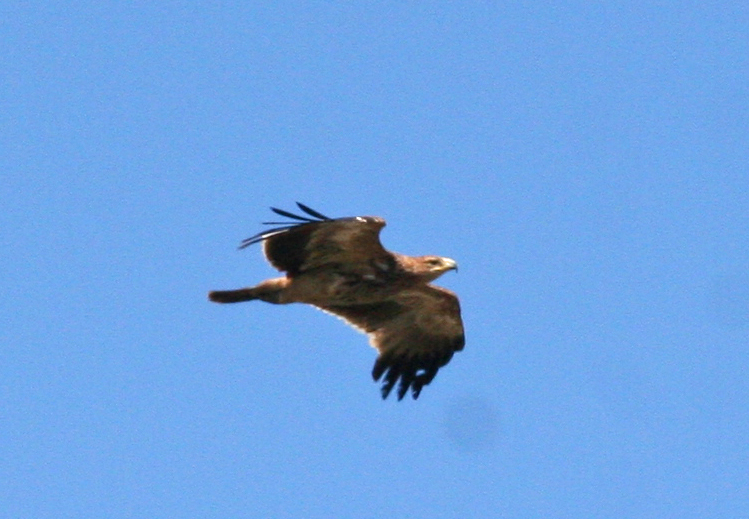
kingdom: Animalia
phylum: Chordata
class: Aves
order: Accipitriformes
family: Accipitridae
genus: Aquila
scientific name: Aquila heliaca
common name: Eastern imperial eagle
